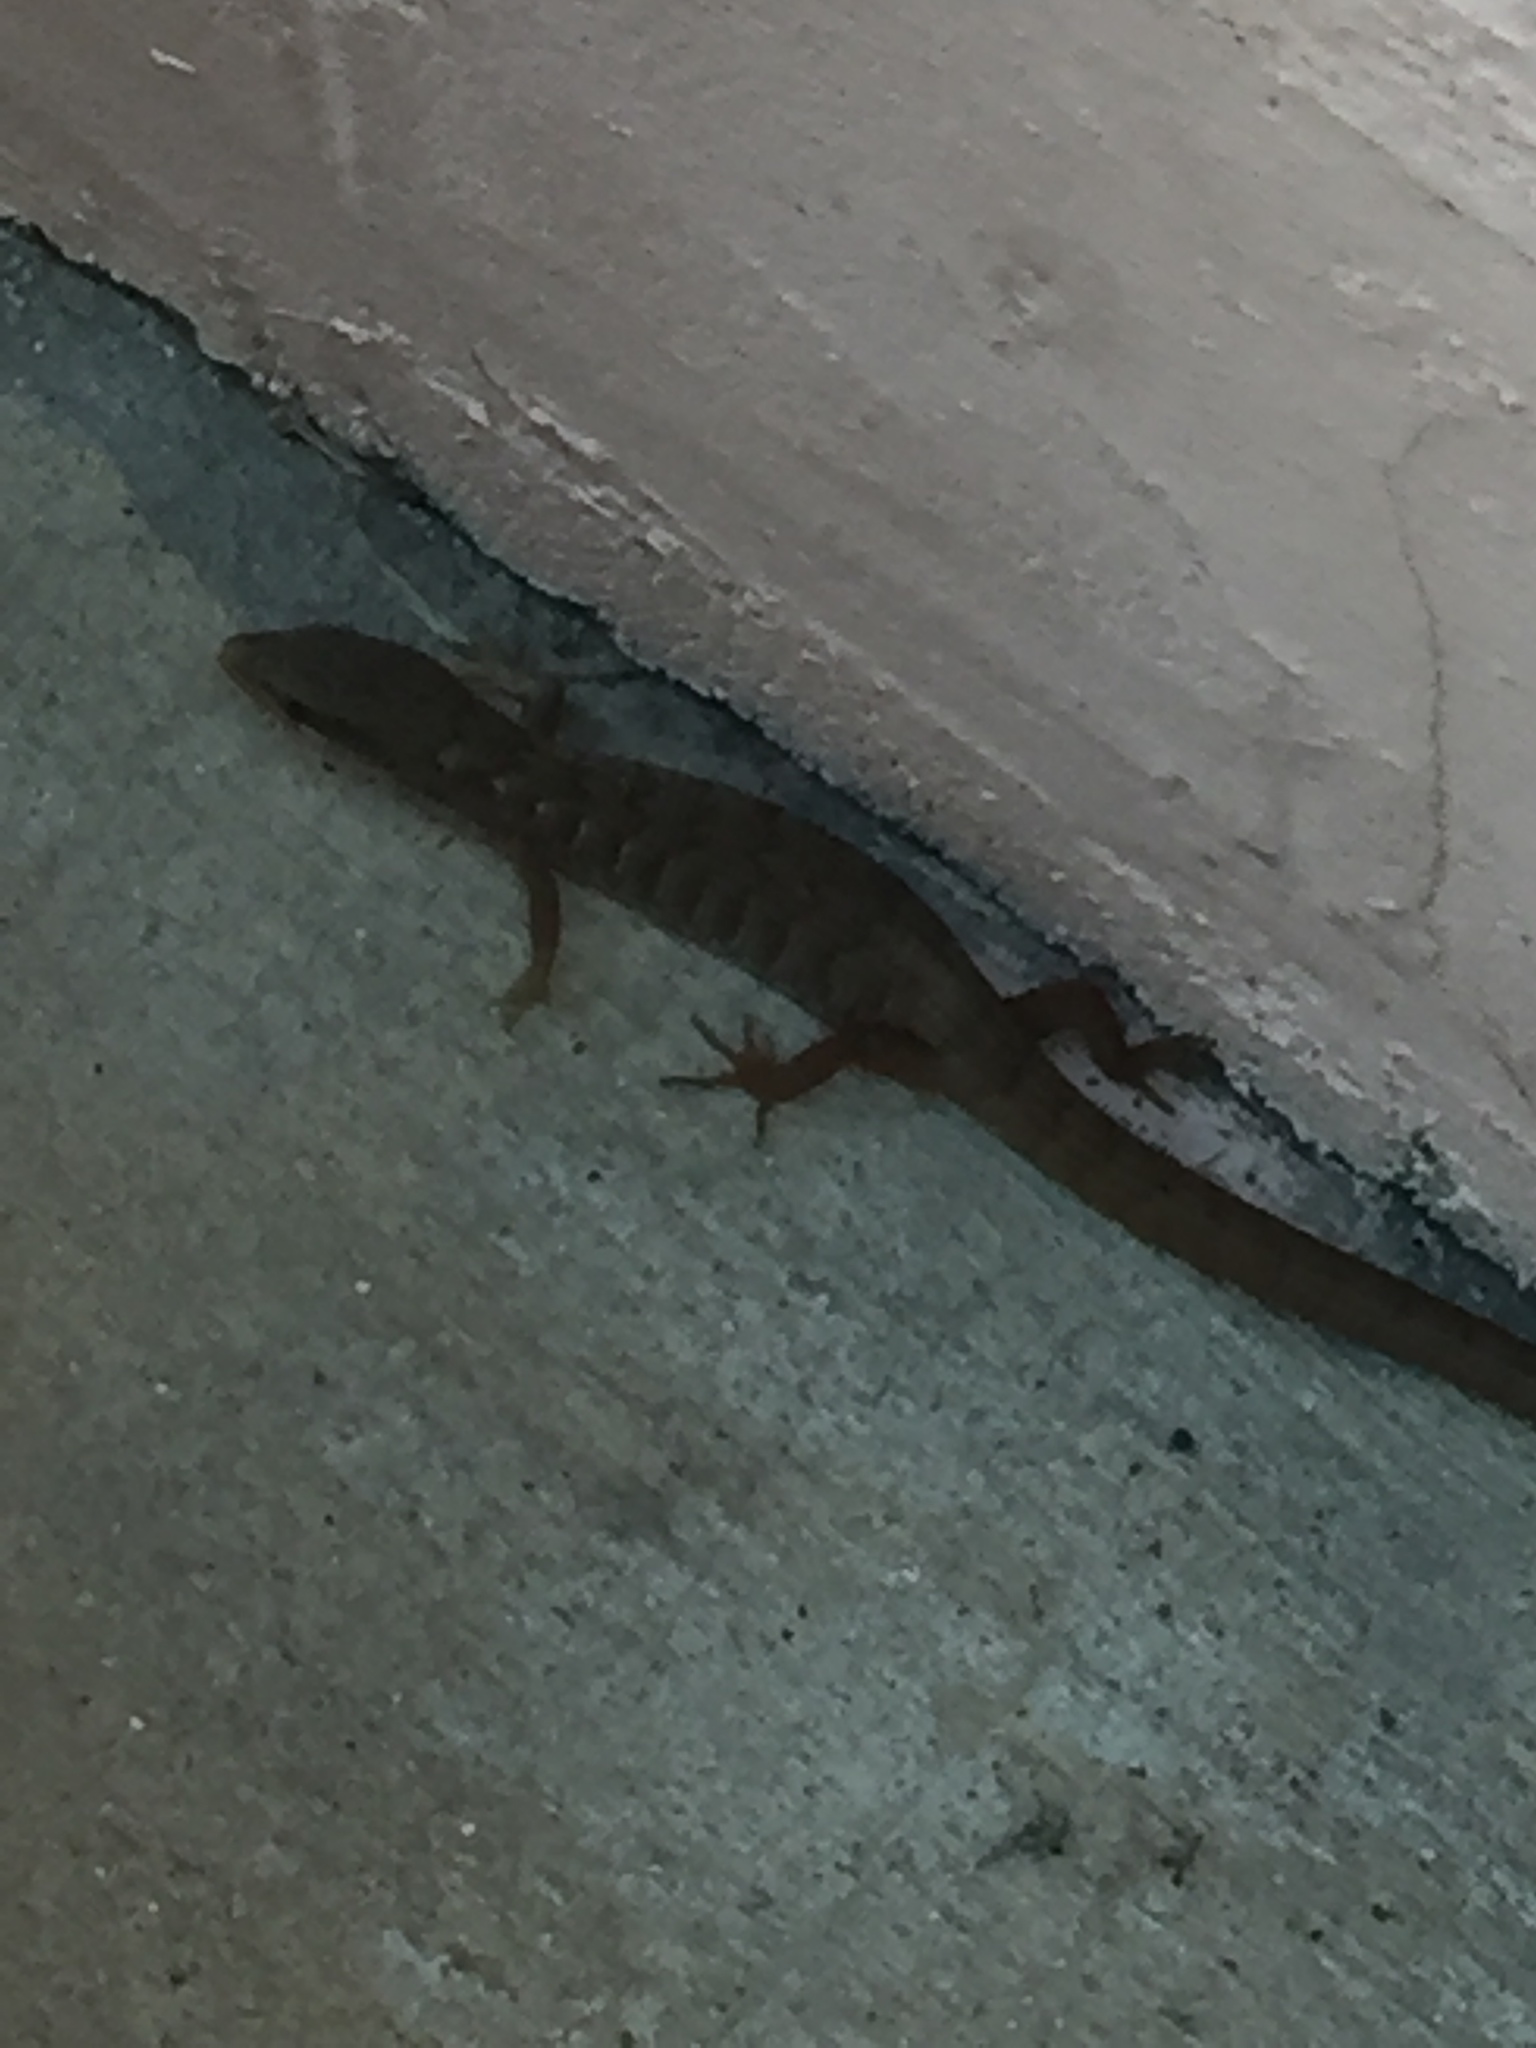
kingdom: Animalia
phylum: Chordata
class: Squamata
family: Anguidae
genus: Elgaria
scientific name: Elgaria multicarinata
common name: Southern alligator lizard
